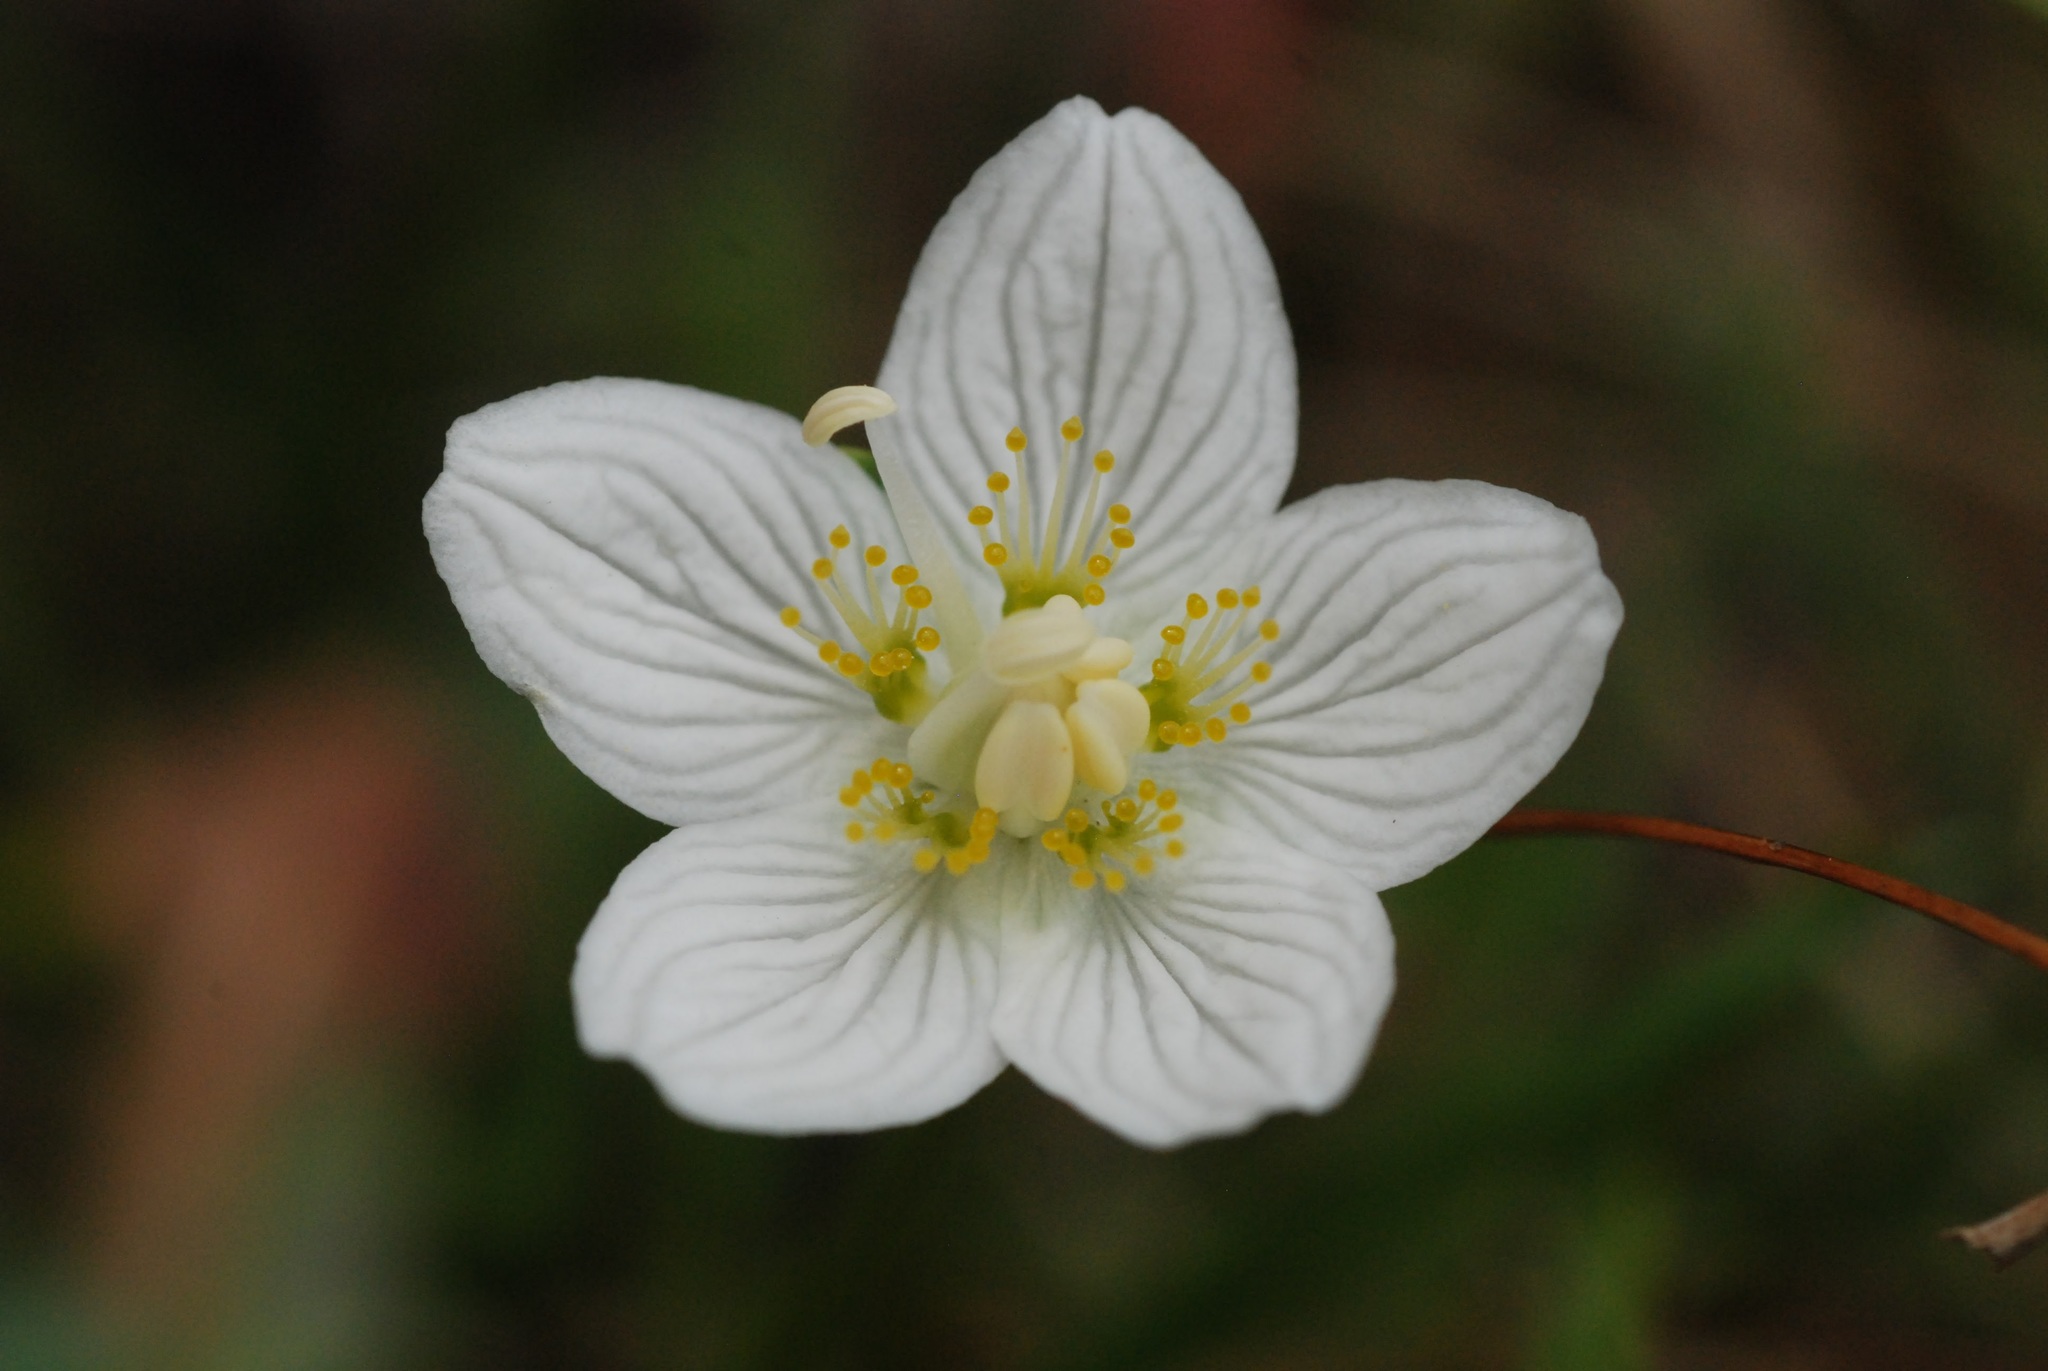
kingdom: Plantae
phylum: Tracheophyta
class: Magnoliopsida
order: Celastrales
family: Parnassiaceae
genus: Parnassia
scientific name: Parnassia palustris
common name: Grass-of-parnassus
